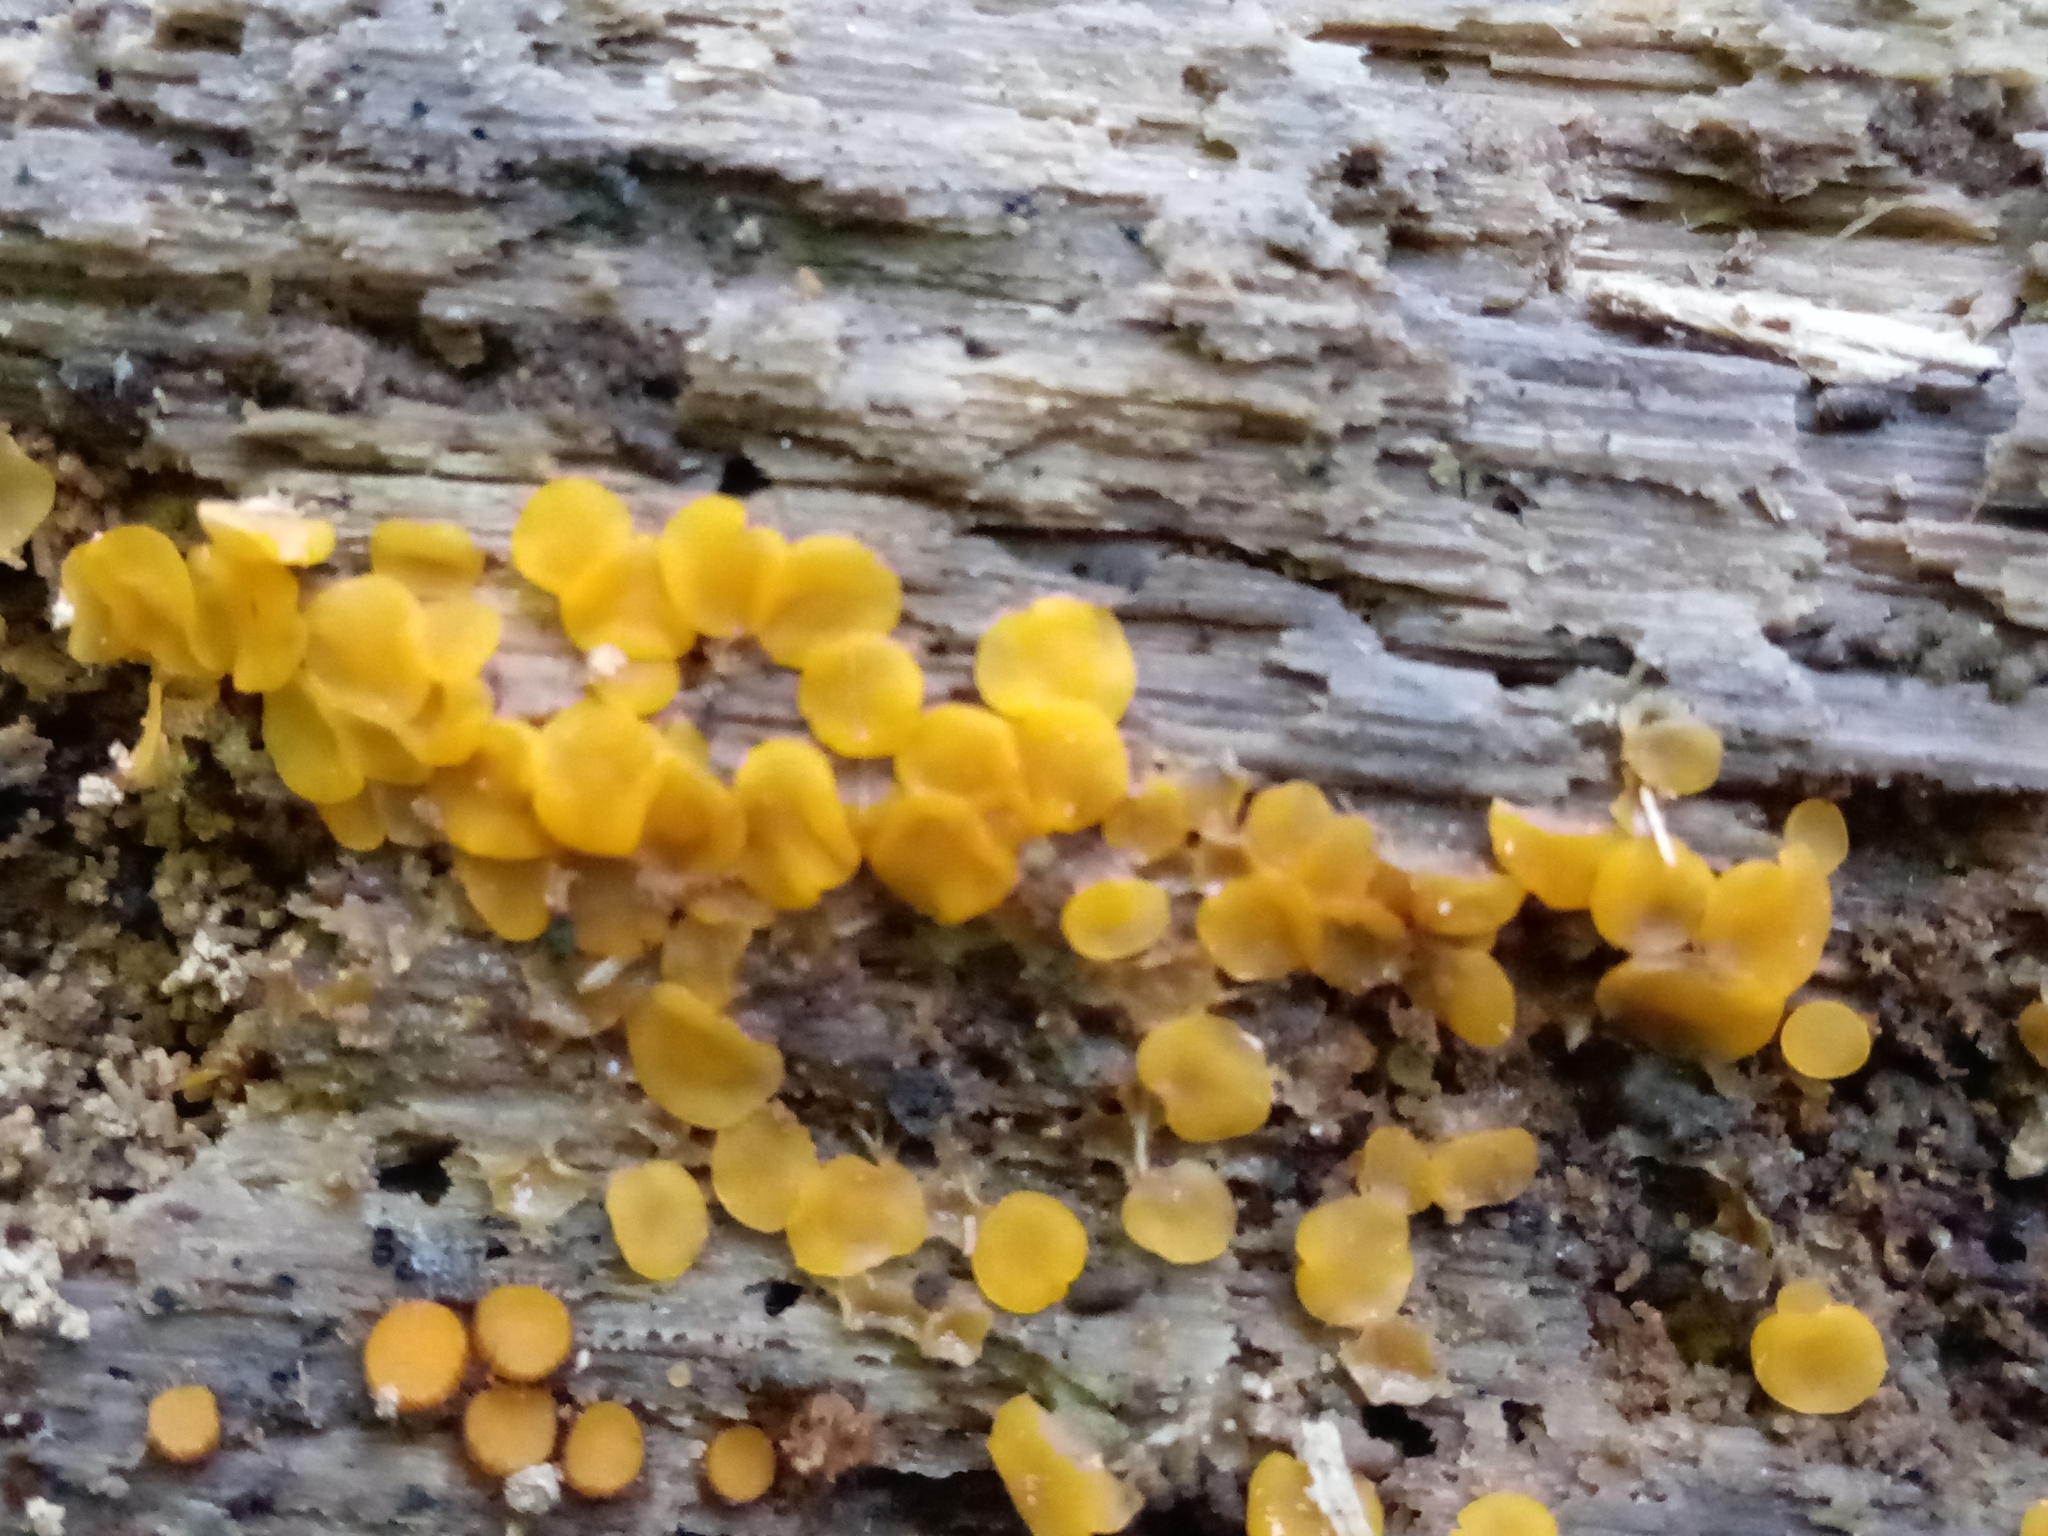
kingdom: Fungi
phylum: Ascomycota
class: Orbiliomycetes
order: Orbiliales
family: Orbiliaceae
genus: Orbilia
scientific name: Orbilia
